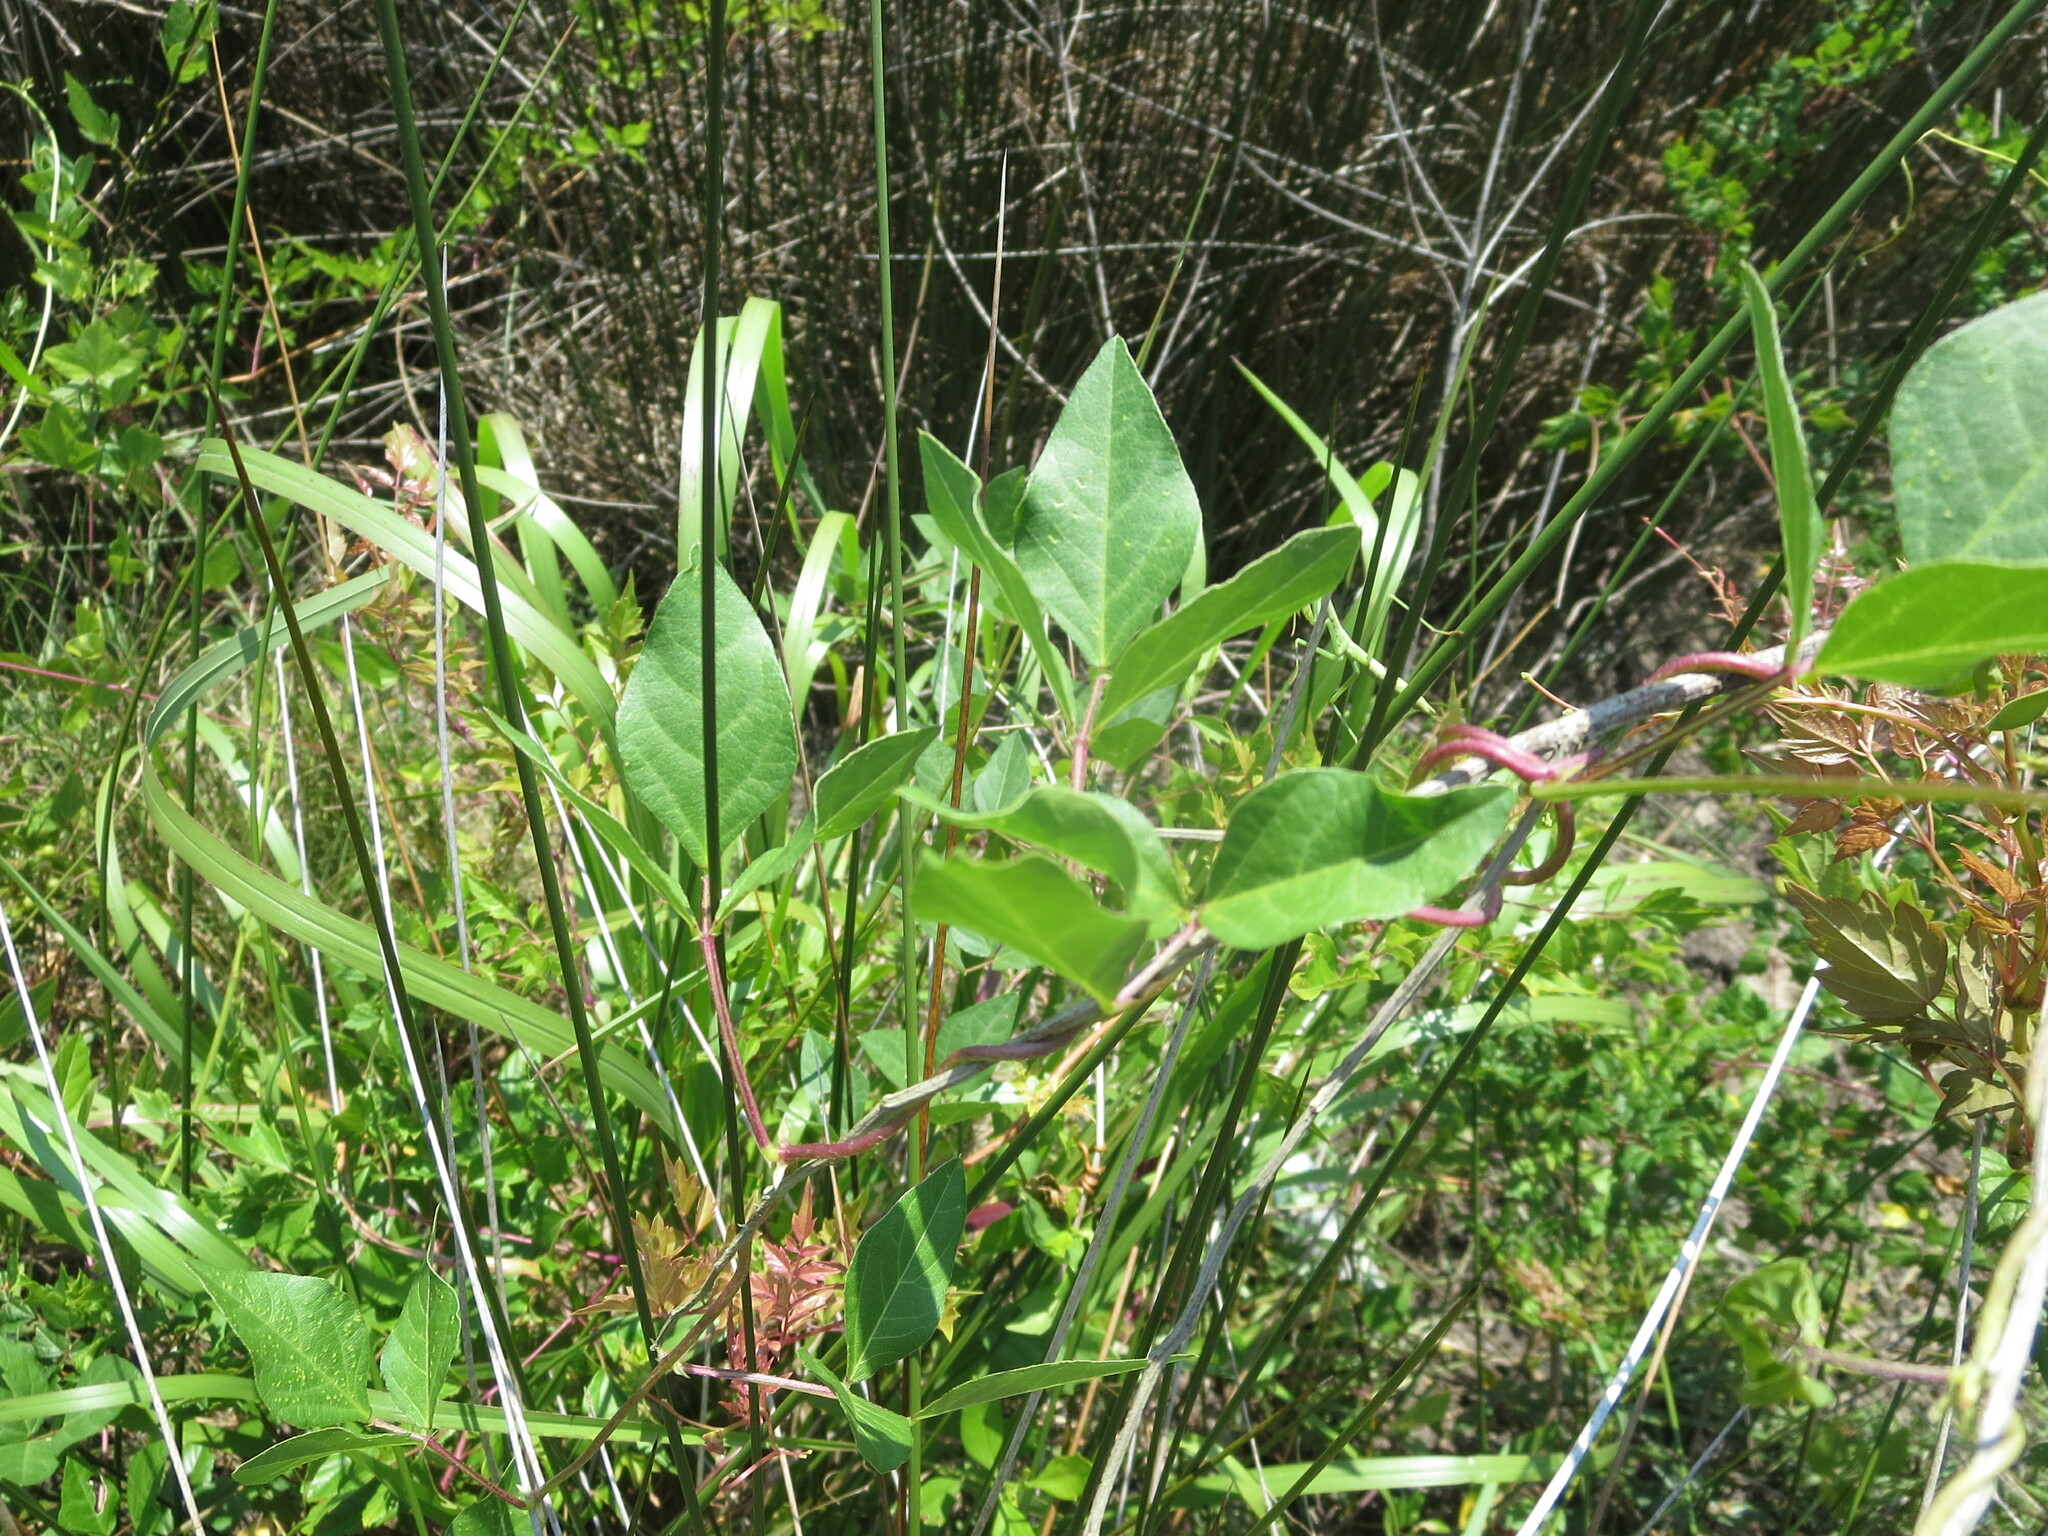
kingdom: Plantae
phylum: Tracheophyta
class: Magnoliopsida
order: Fabales
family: Fabaceae
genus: Strophostyles
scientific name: Strophostyles helvola
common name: Trailing wild bean
